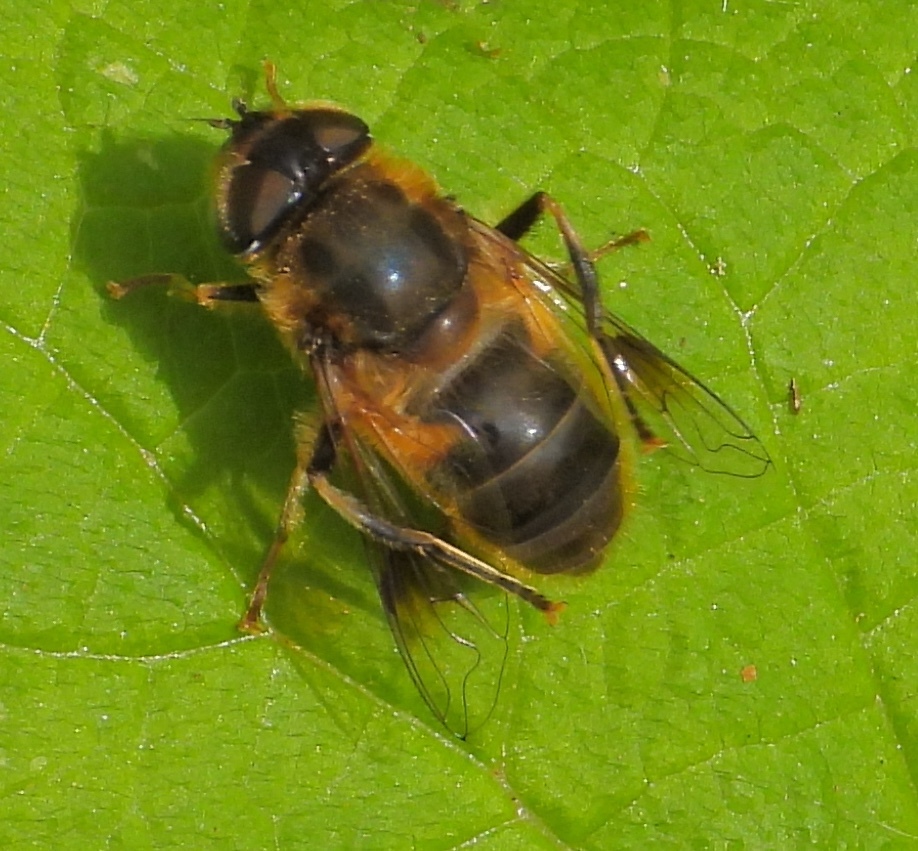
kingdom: Animalia
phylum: Arthropoda
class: Insecta
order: Diptera
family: Syrphidae
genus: Eristalis
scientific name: Eristalis pertinax
